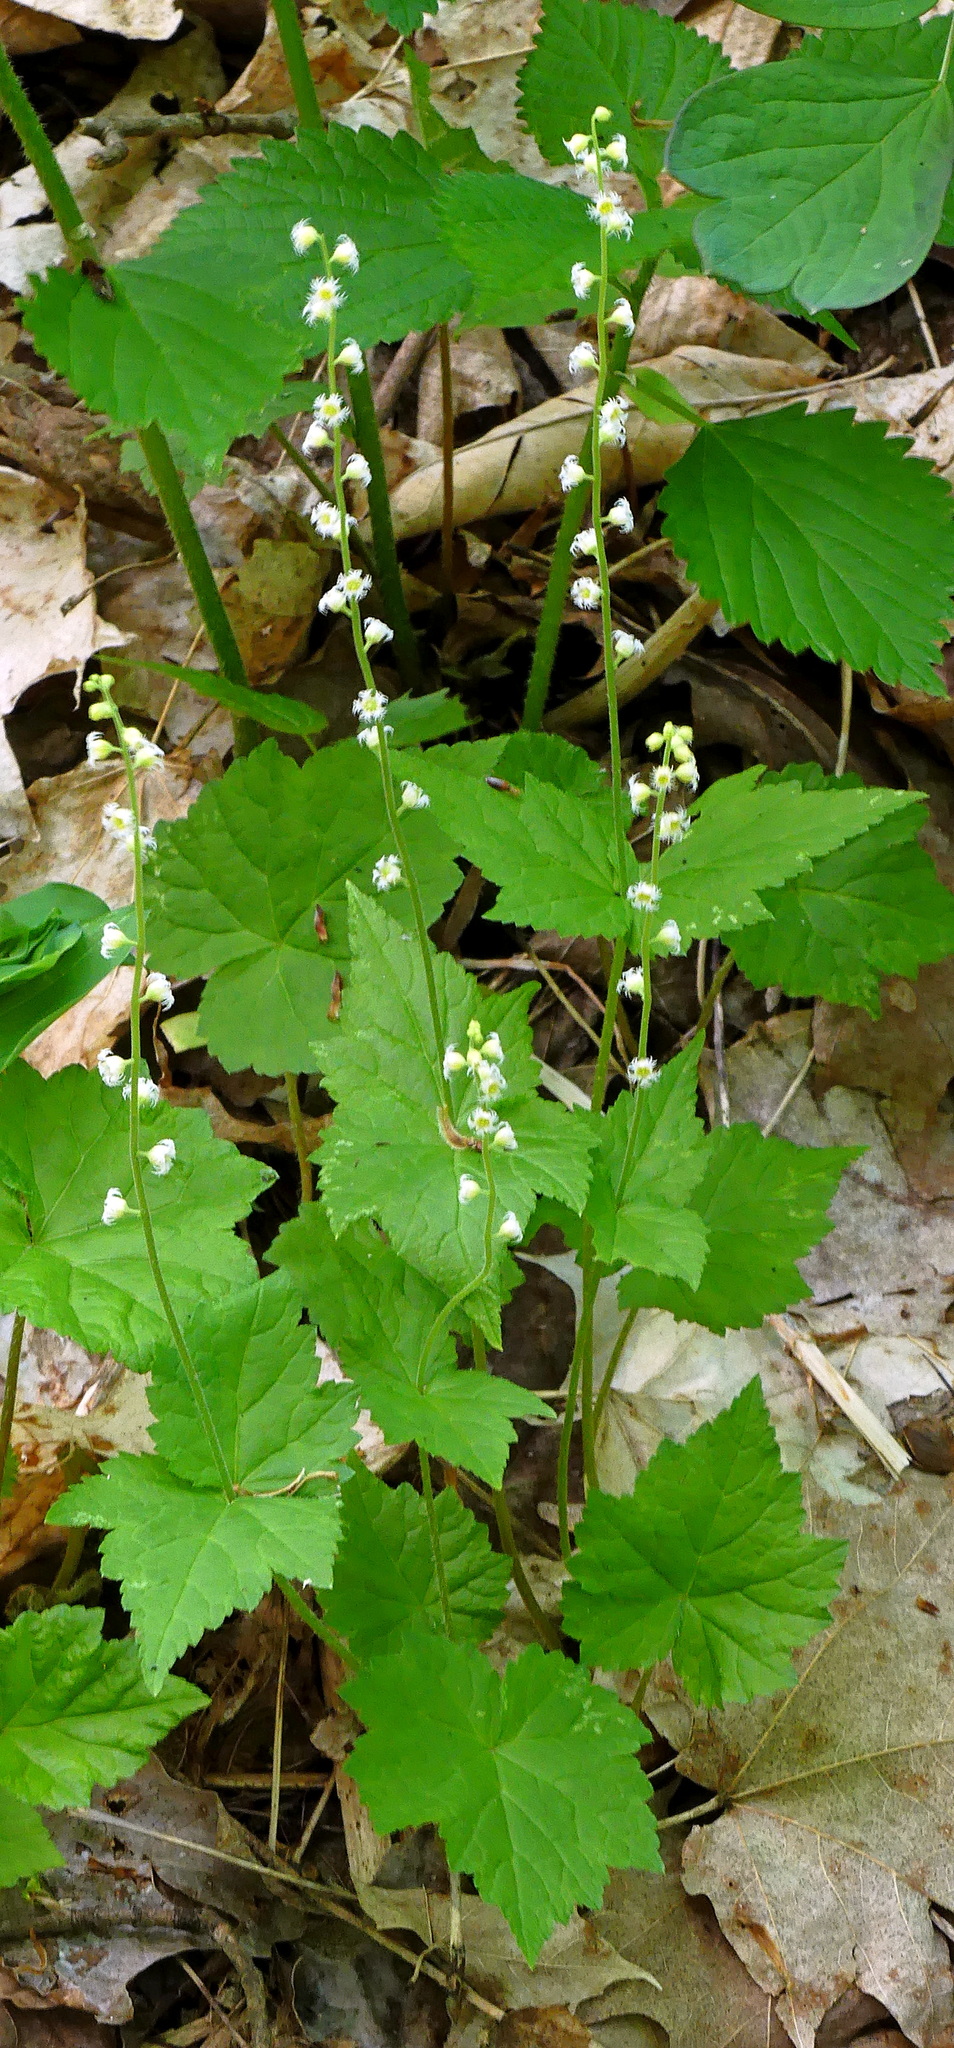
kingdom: Plantae
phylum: Tracheophyta
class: Magnoliopsida
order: Saxifragales
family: Saxifragaceae
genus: Mitella
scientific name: Mitella diphylla
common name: Coolwort
